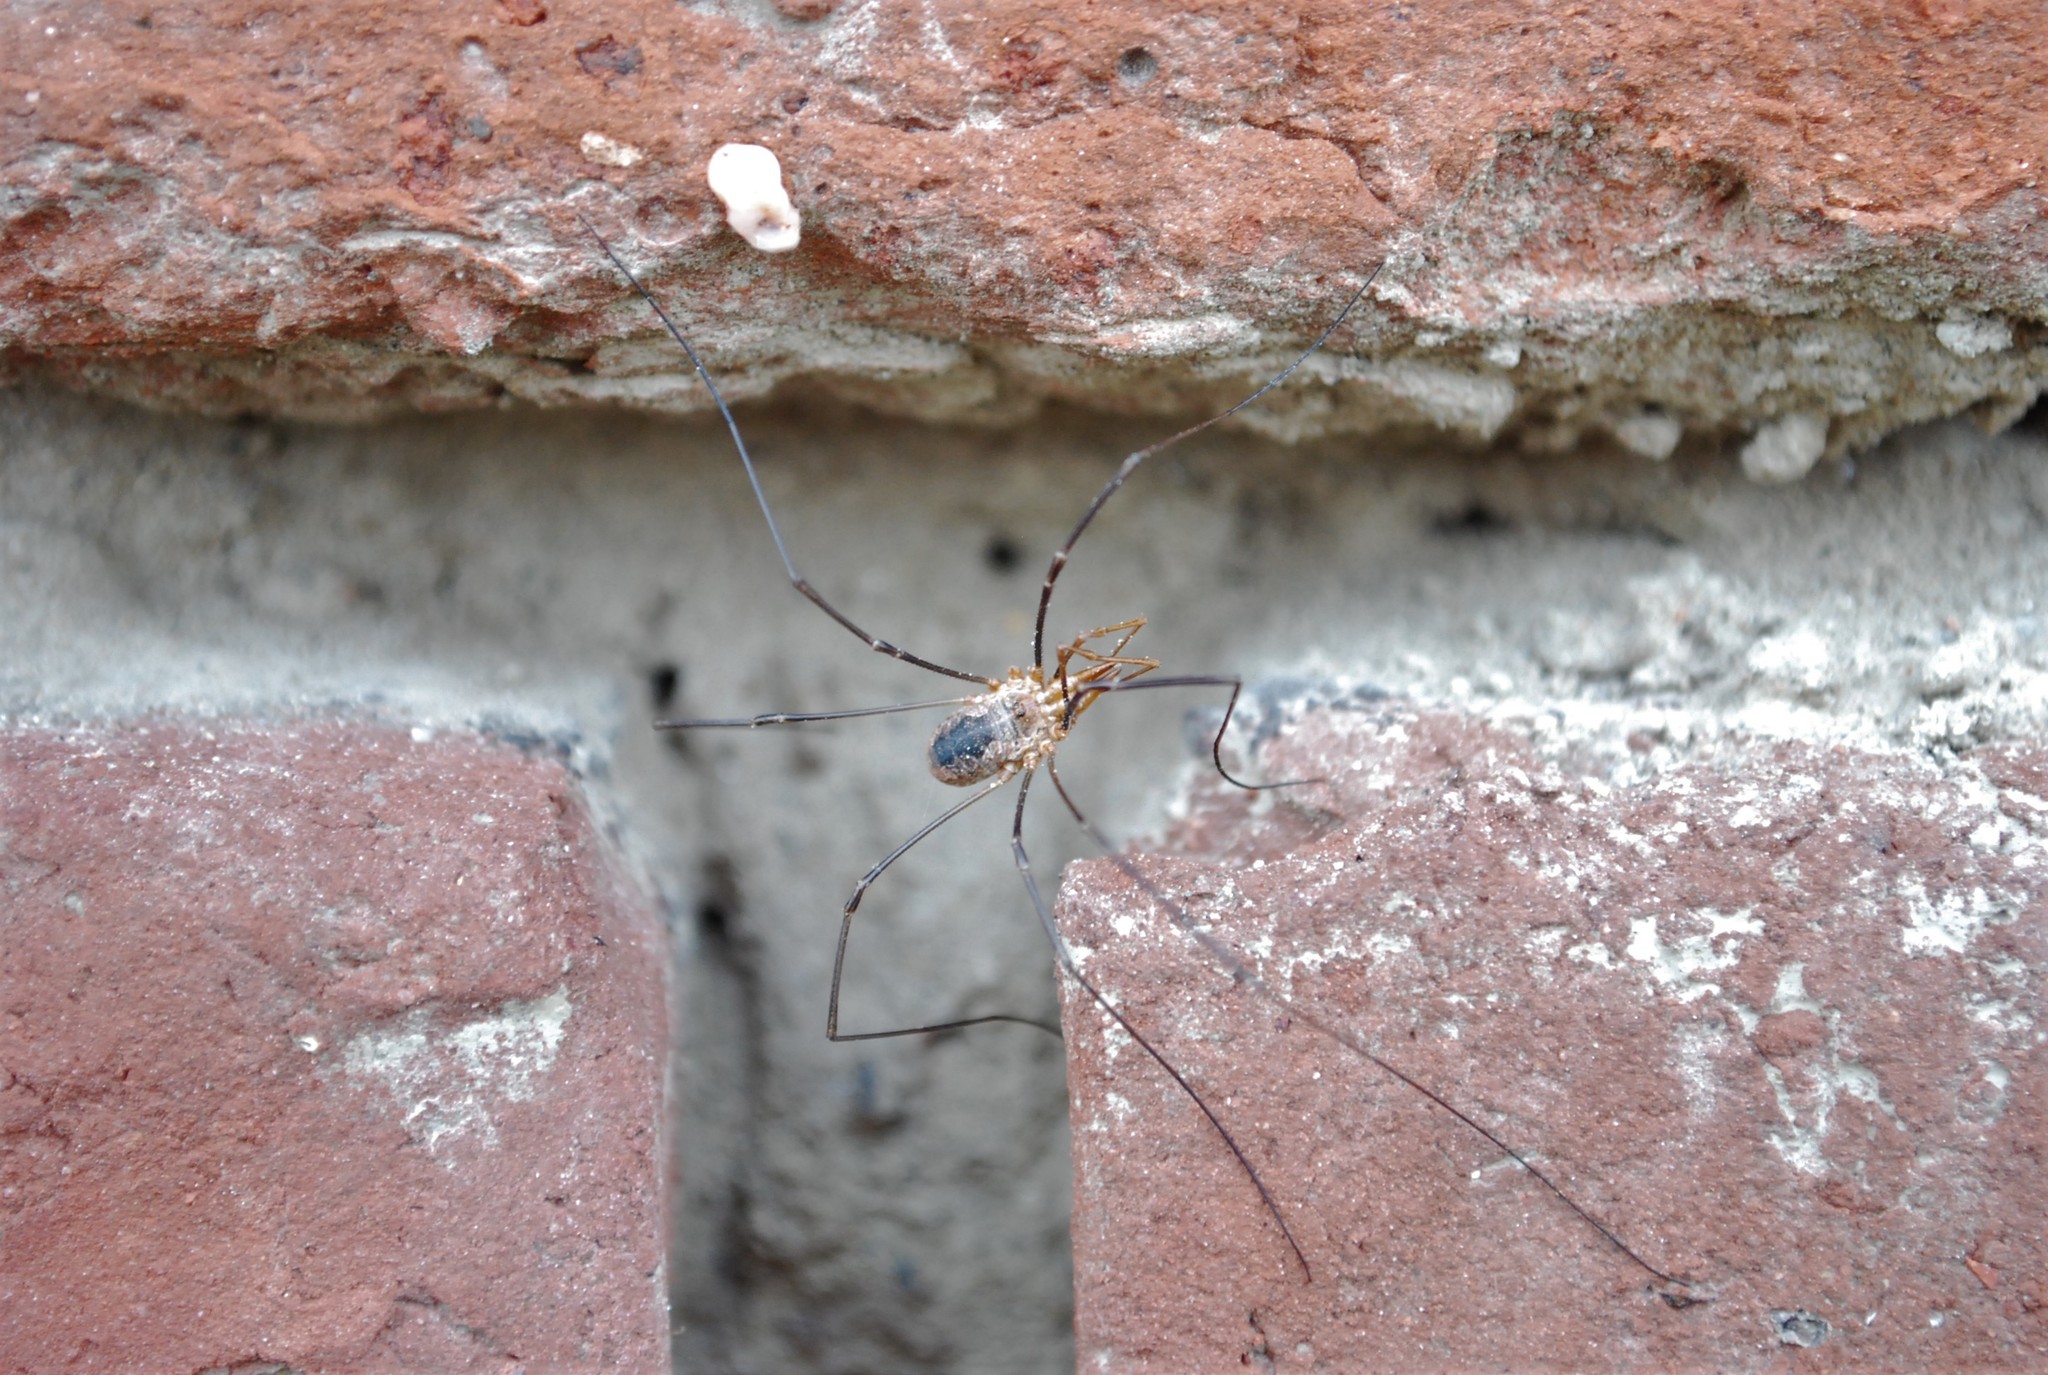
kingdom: Animalia
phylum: Arthropoda
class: Arachnida
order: Opiliones
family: Phalangiidae
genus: Phalangium
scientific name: Phalangium opilio
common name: Daddy longleg
